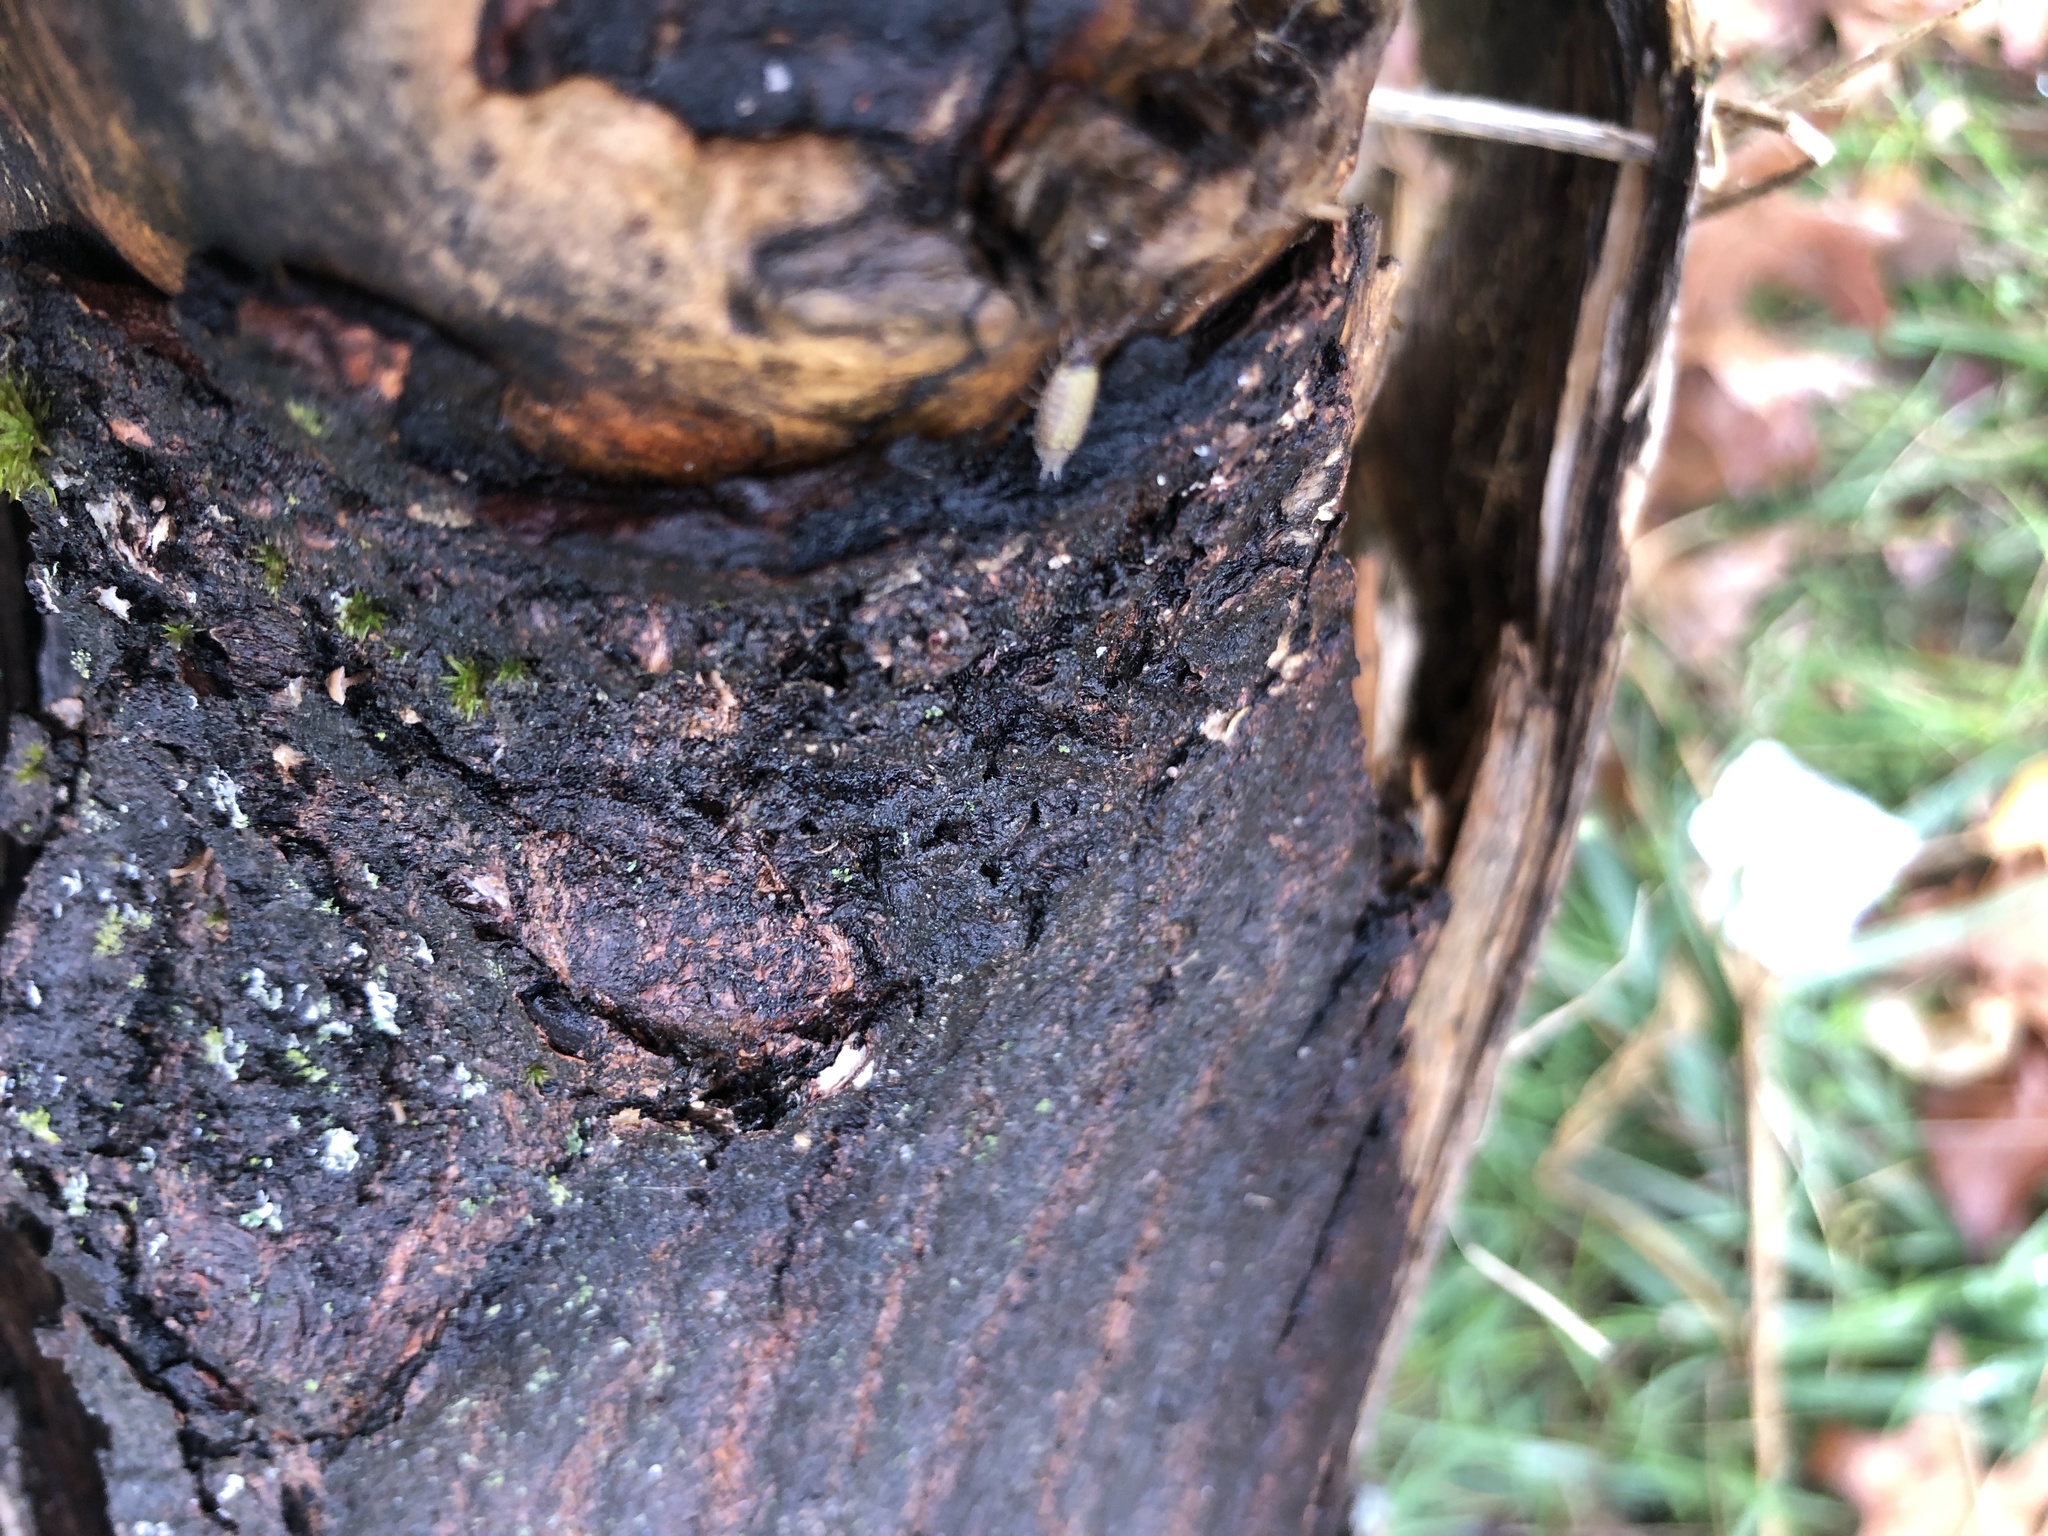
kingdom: Animalia
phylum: Arthropoda
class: Malacostraca
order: Isopoda
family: Philosciidae
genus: Philoscia
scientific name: Philoscia muscorum
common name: Common striped woodlouse
